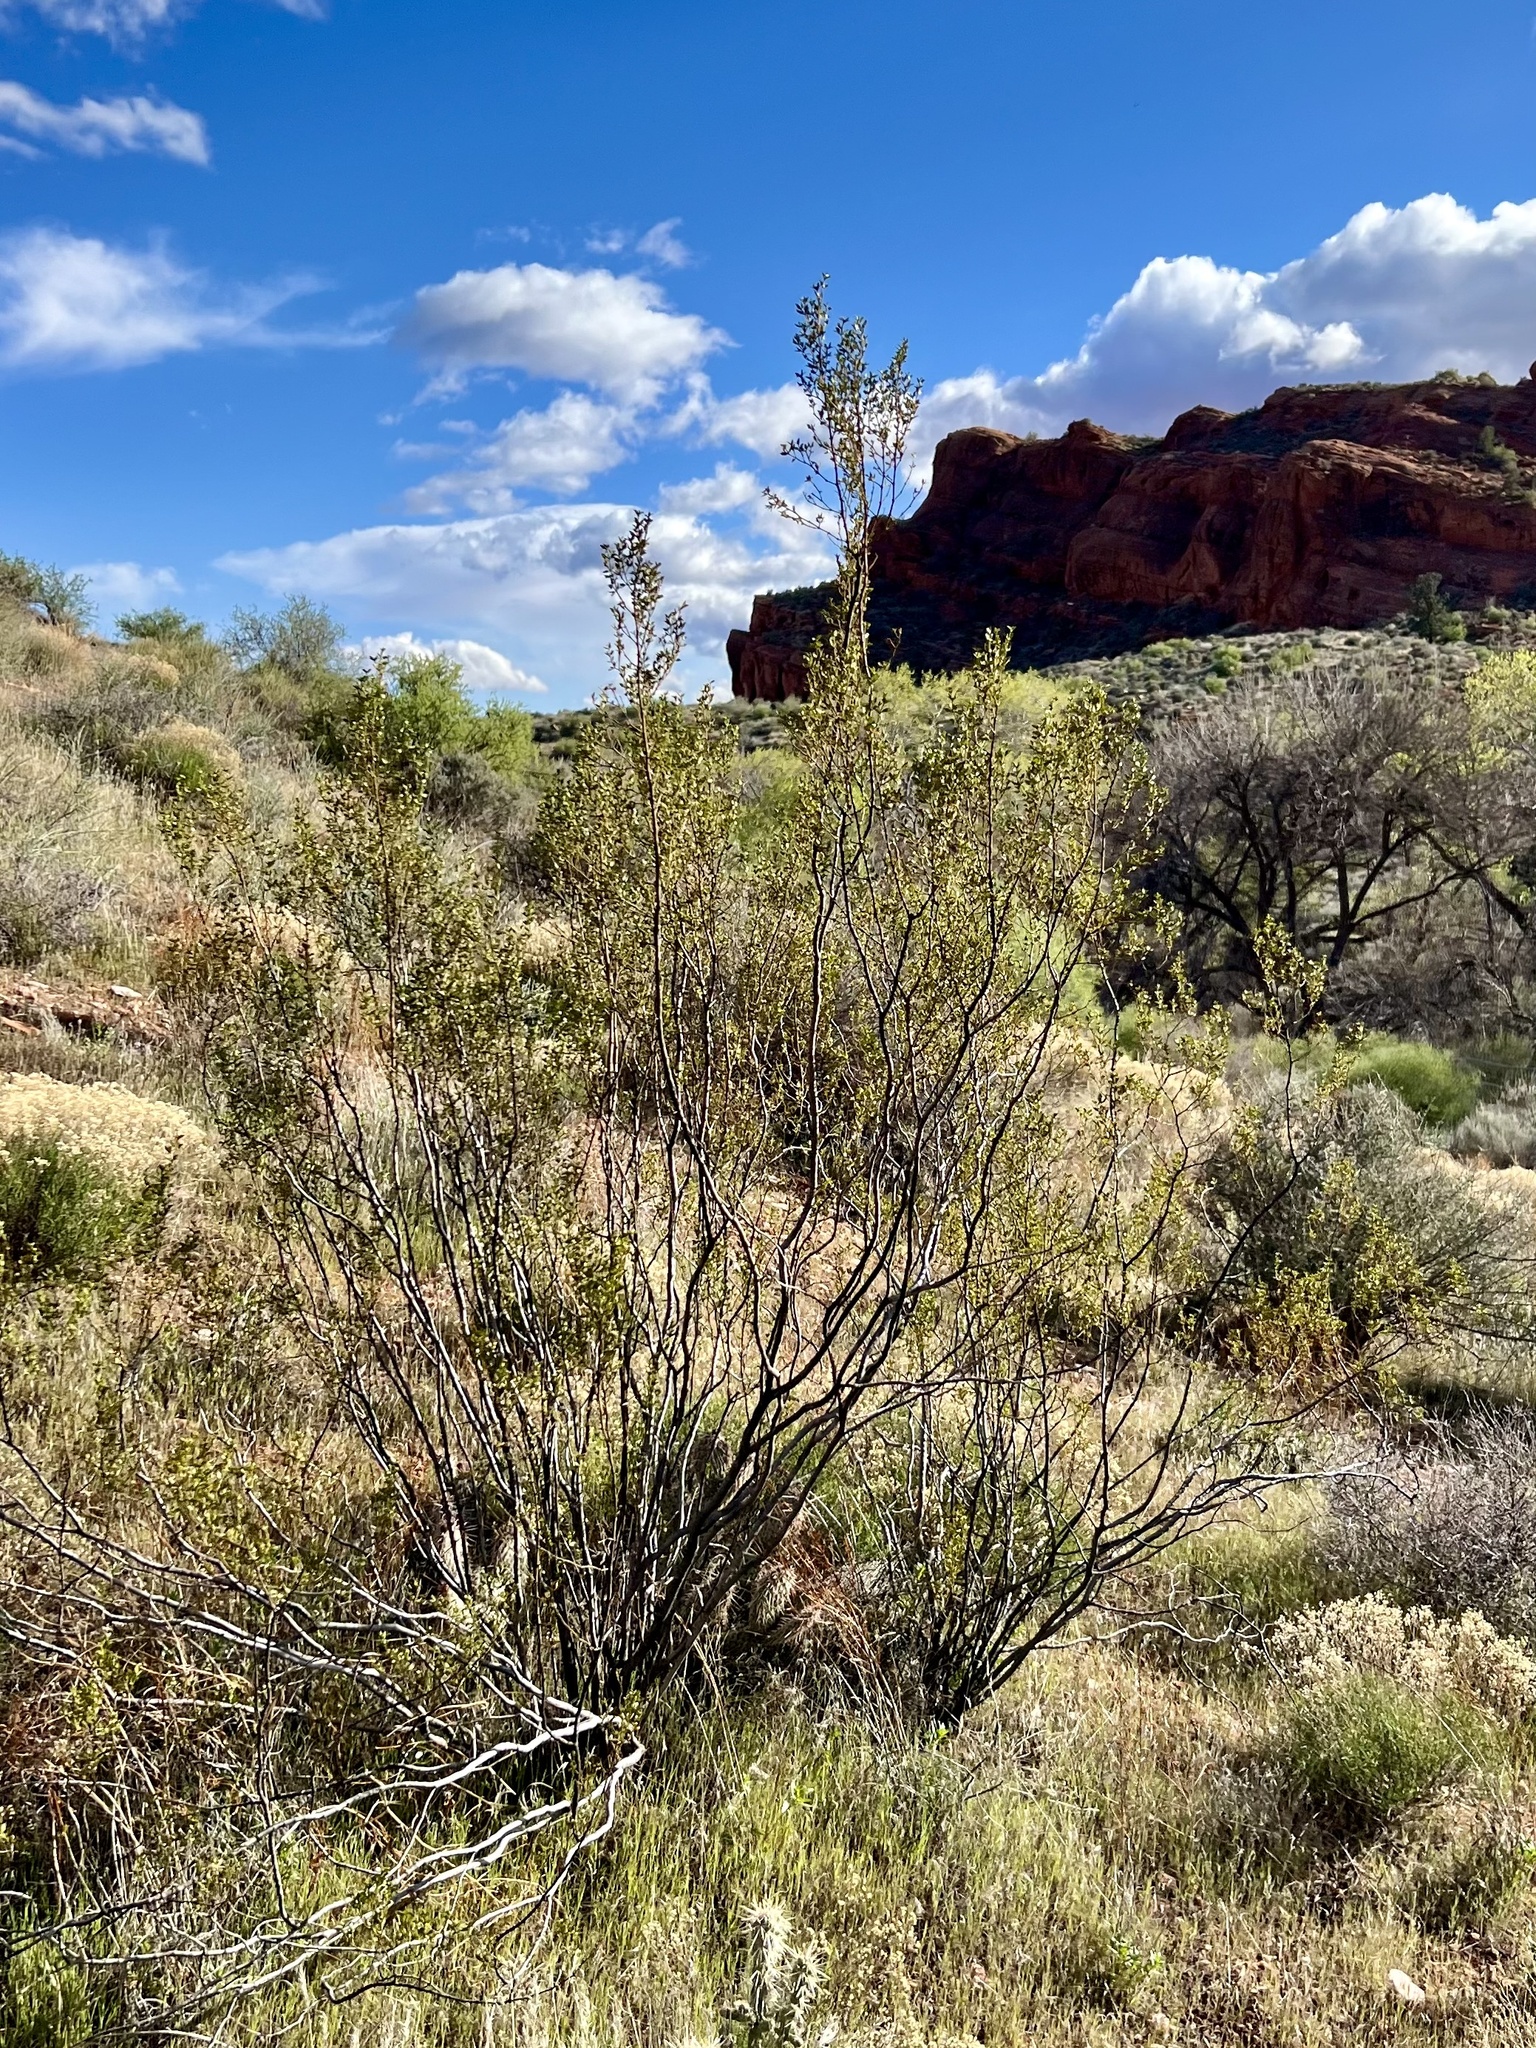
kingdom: Plantae
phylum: Tracheophyta
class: Magnoliopsida
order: Zygophyllales
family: Zygophyllaceae
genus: Larrea
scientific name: Larrea tridentata
